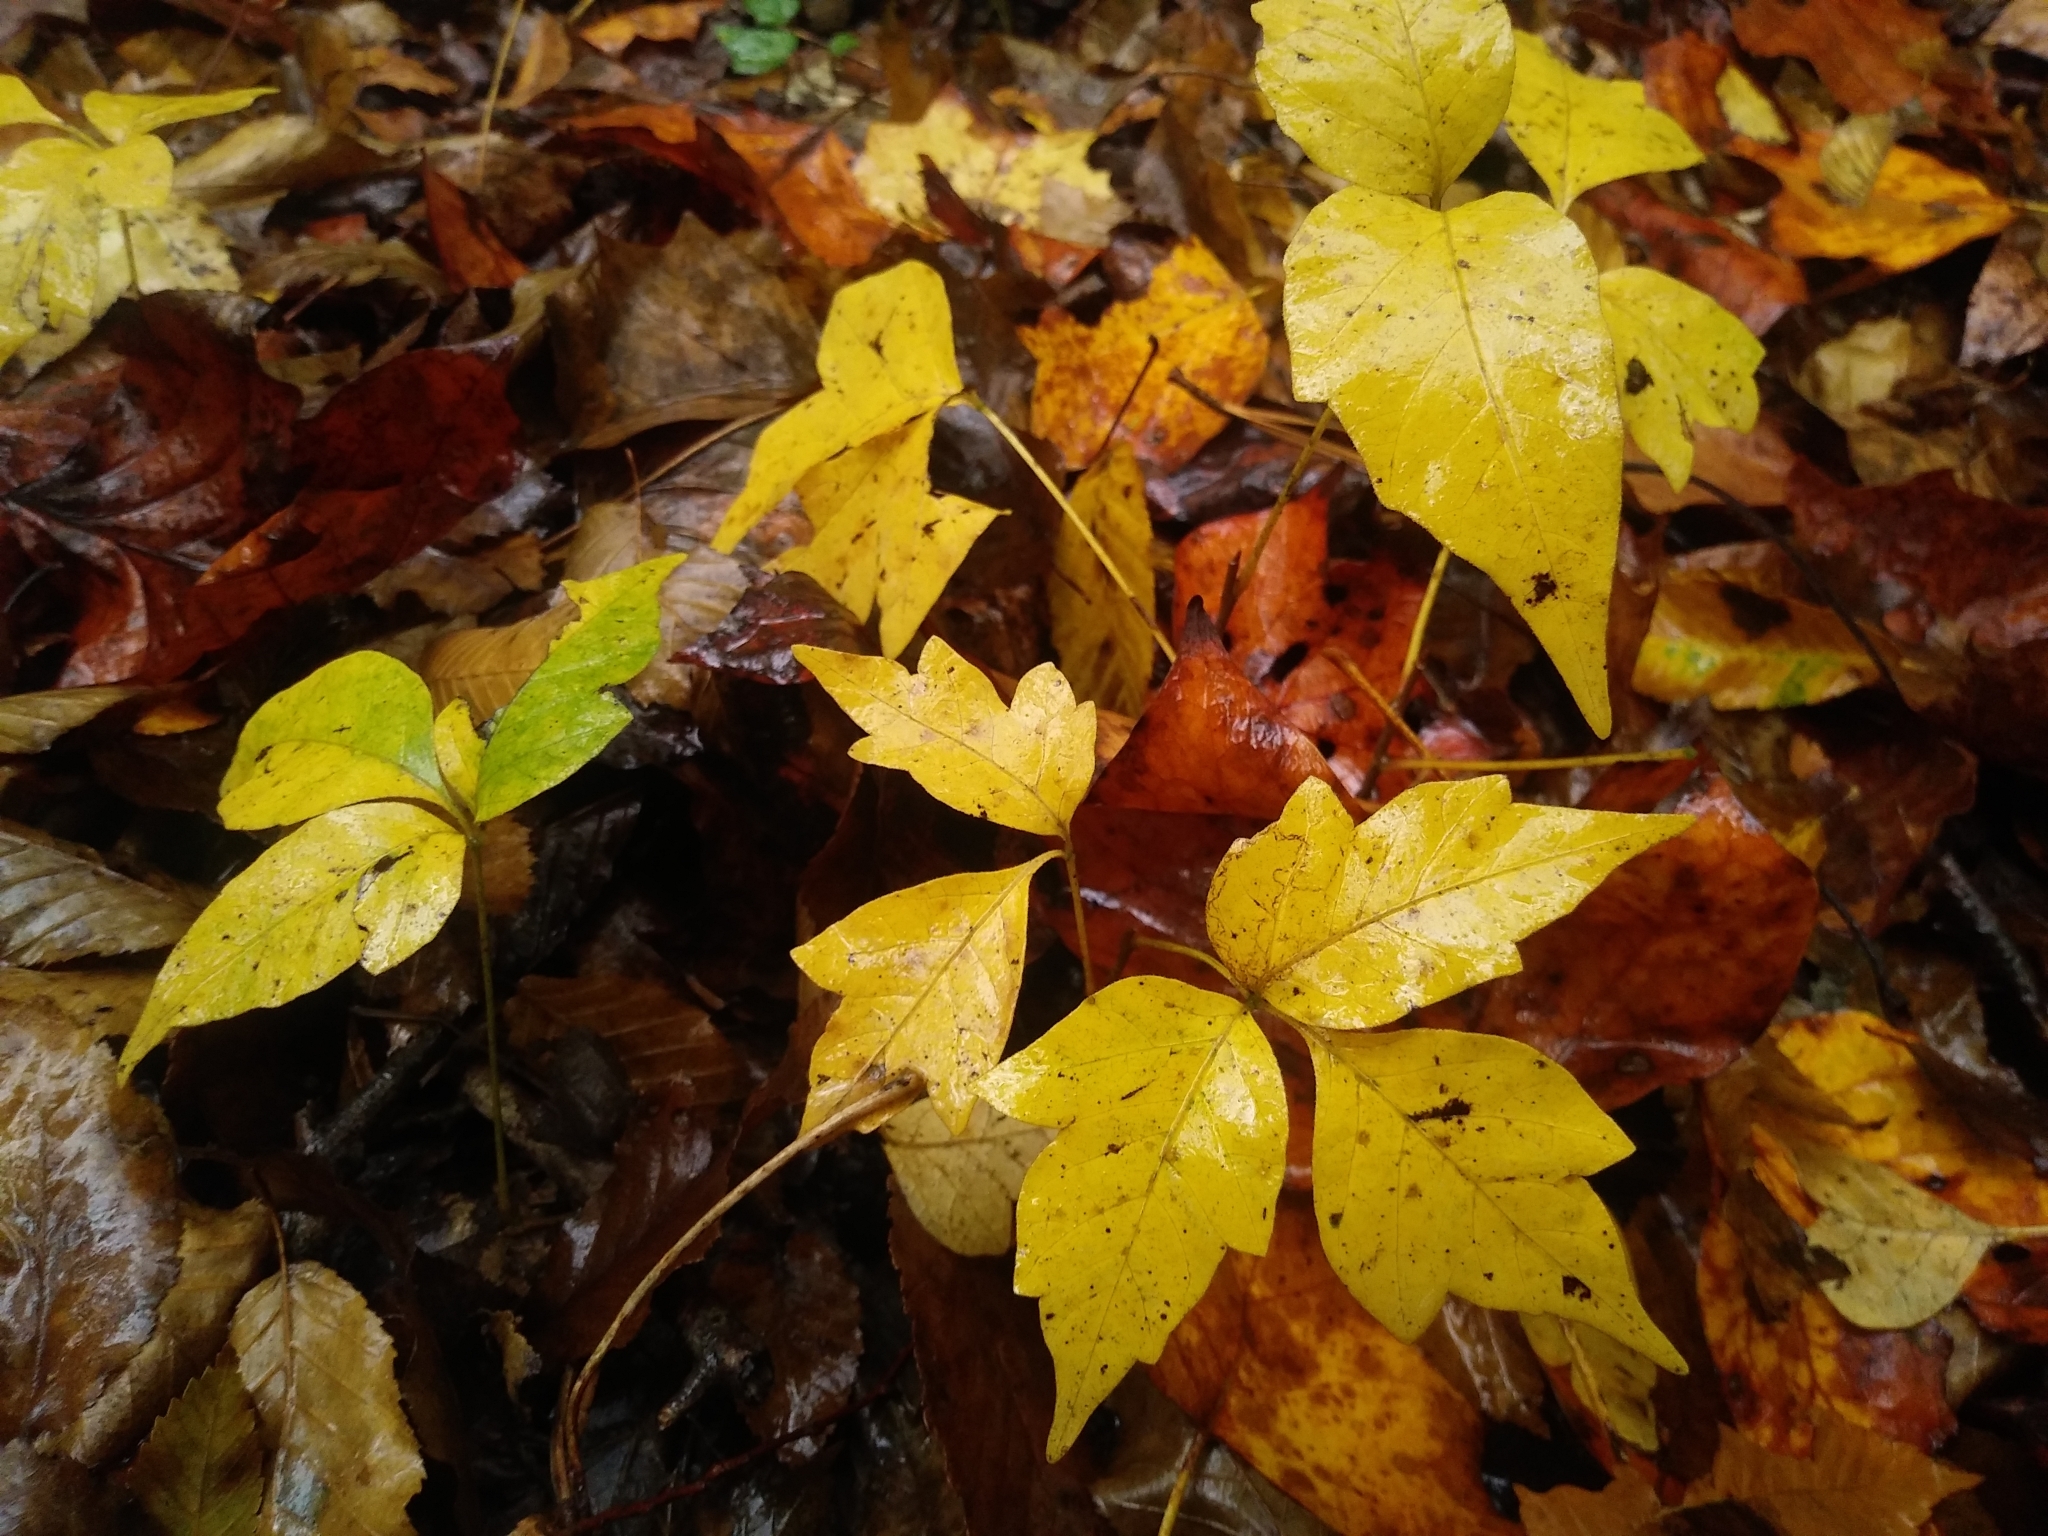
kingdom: Plantae
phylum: Tracheophyta
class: Magnoliopsida
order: Sapindales
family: Anacardiaceae
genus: Toxicodendron
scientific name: Toxicodendron radicans
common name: Poison ivy
